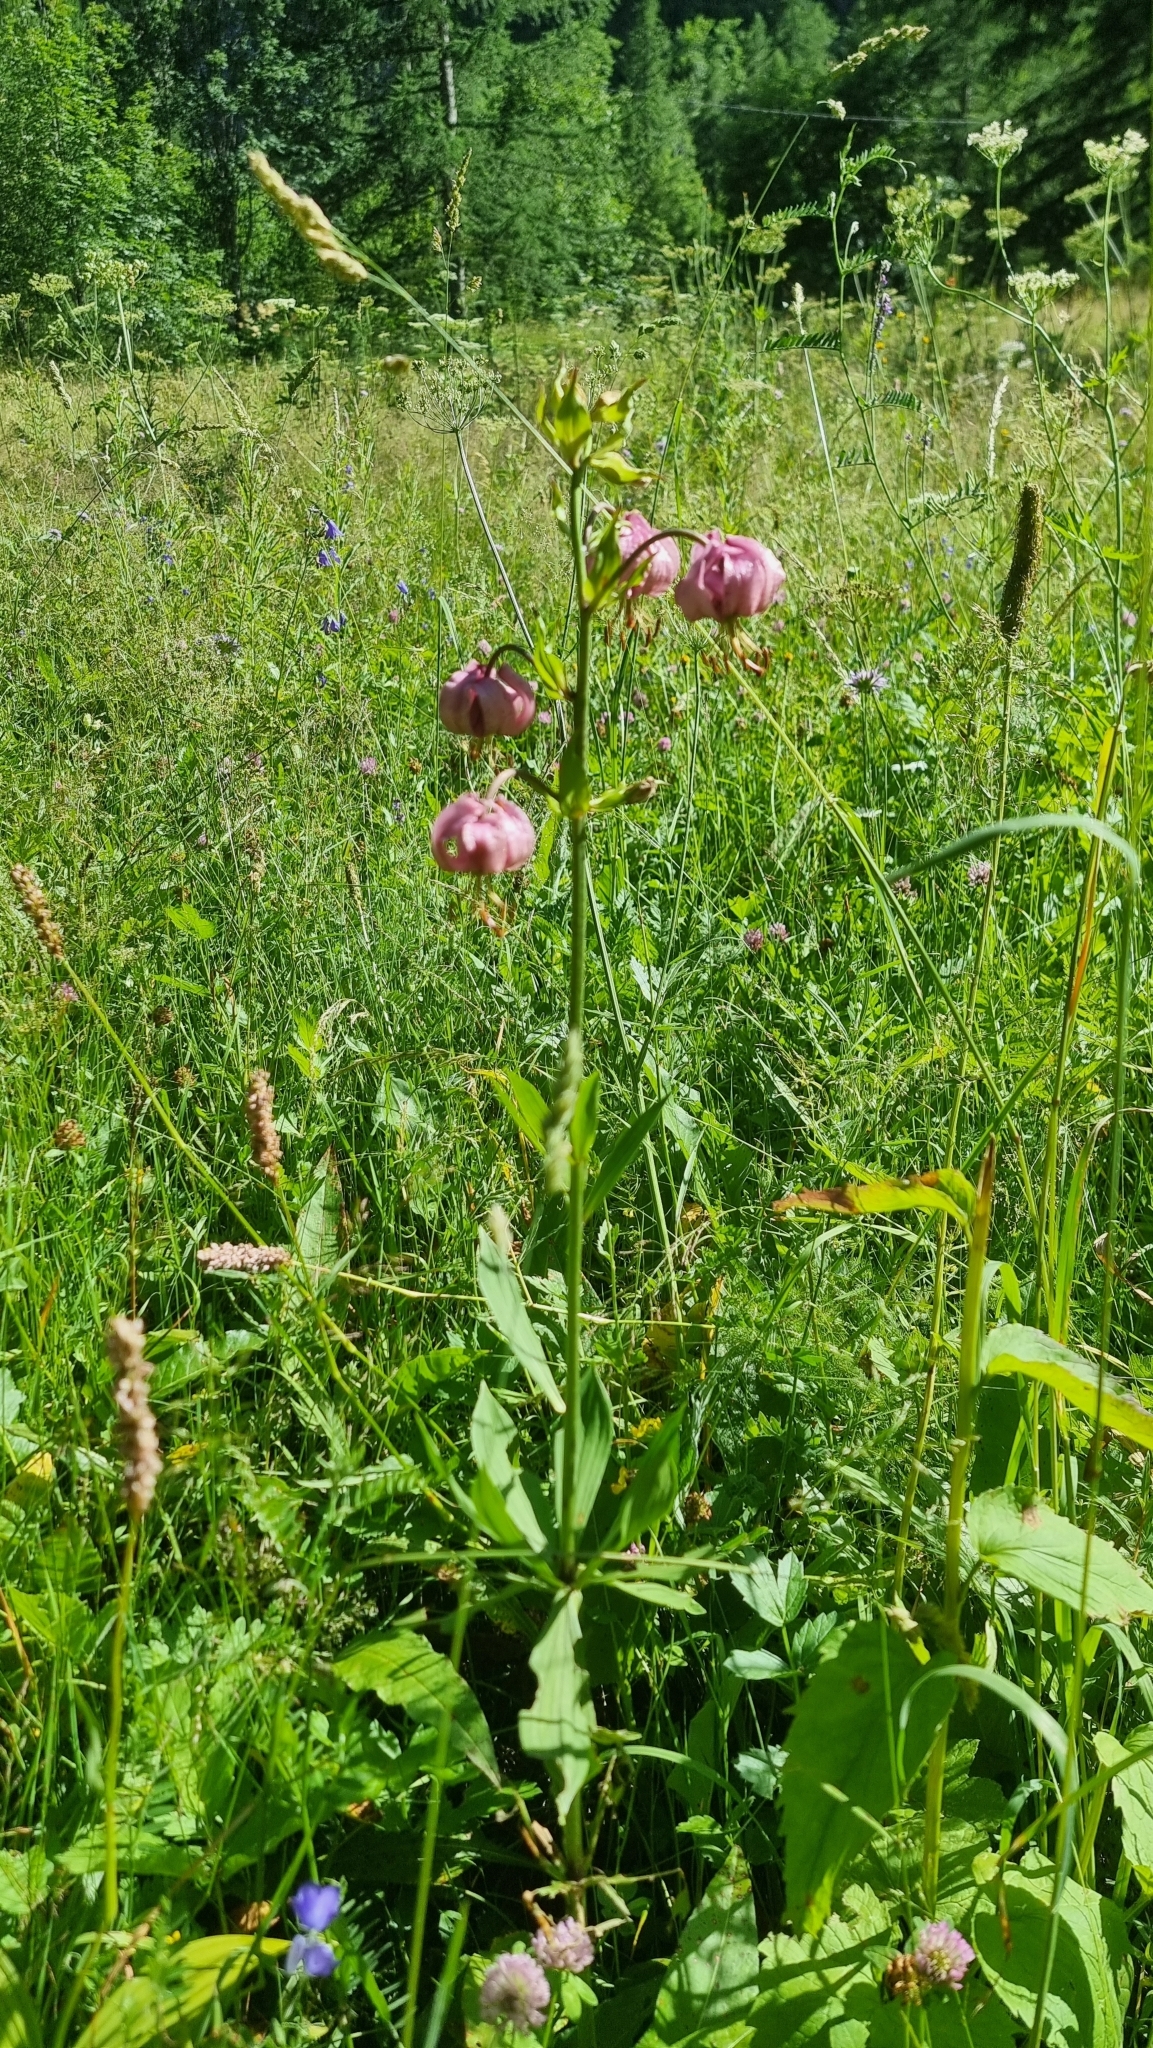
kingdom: Plantae
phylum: Tracheophyta
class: Liliopsida
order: Liliales
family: Liliaceae
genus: Lilium
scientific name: Lilium martagon
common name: Martagon lily
